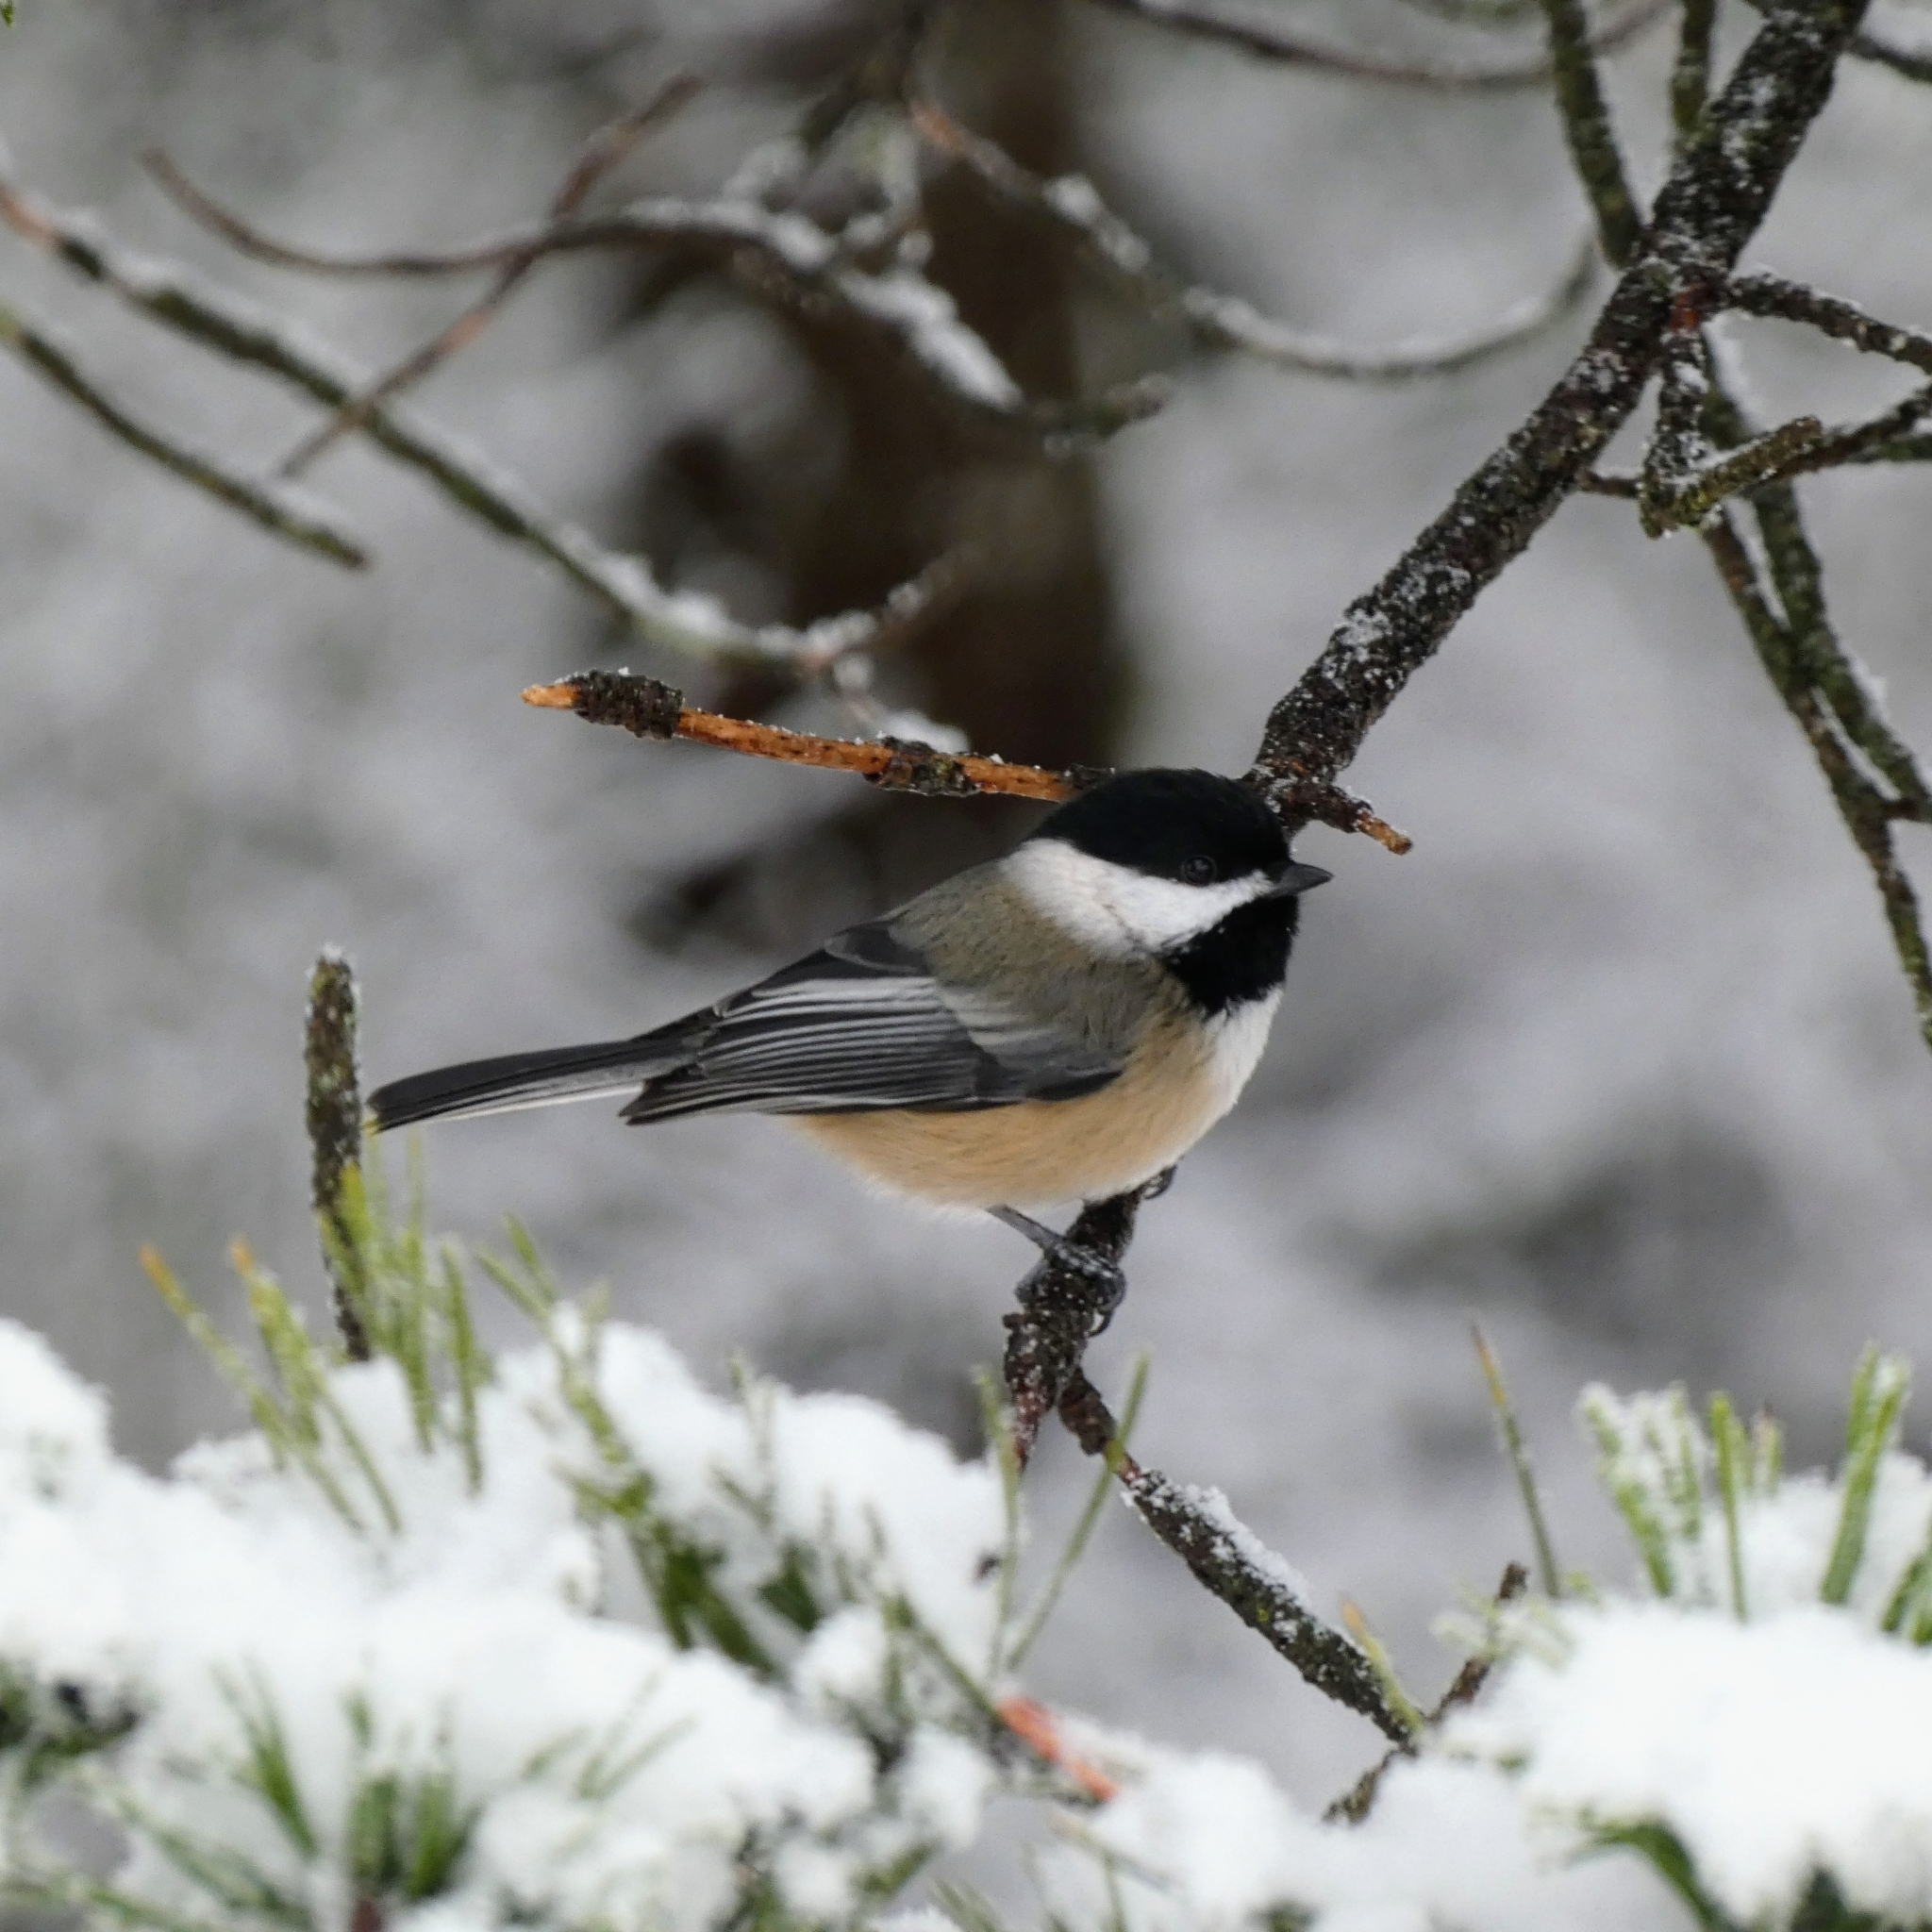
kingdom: Animalia
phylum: Chordata
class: Aves
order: Passeriformes
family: Paridae
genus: Poecile
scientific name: Poecile atricapillus
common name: Black-capped chickadee
